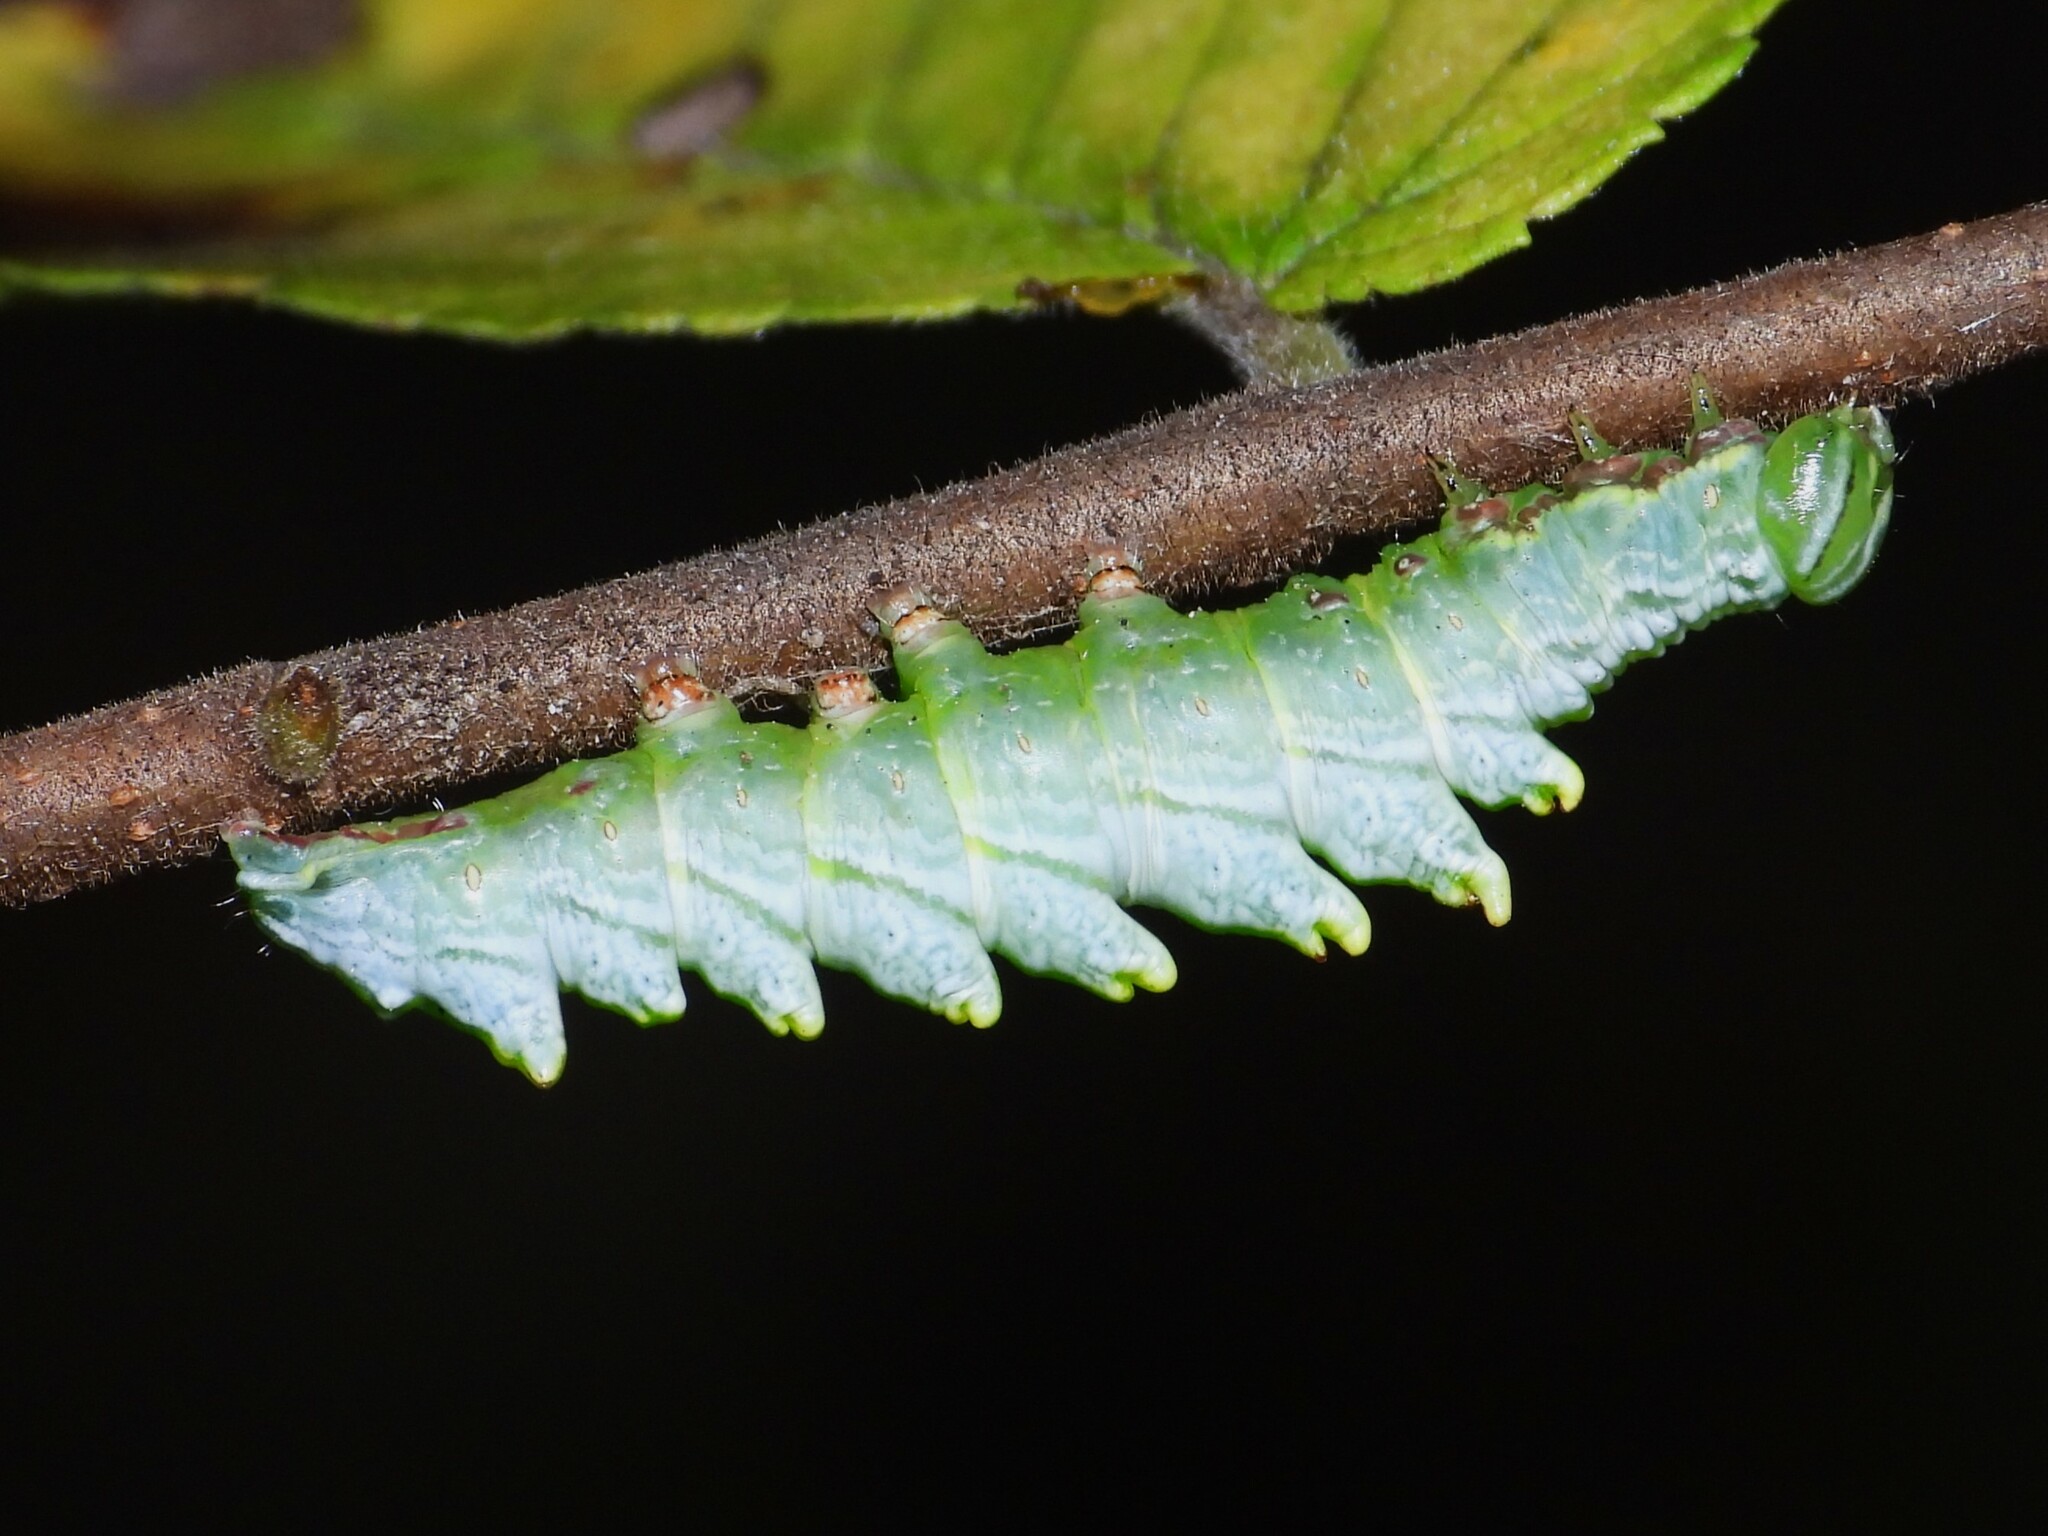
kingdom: Animalia
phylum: Arthropoda
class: Insecta
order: Lepidoptera
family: Notodontidae
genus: Nerice
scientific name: Nerice bidentata
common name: Double-toothed prominent
